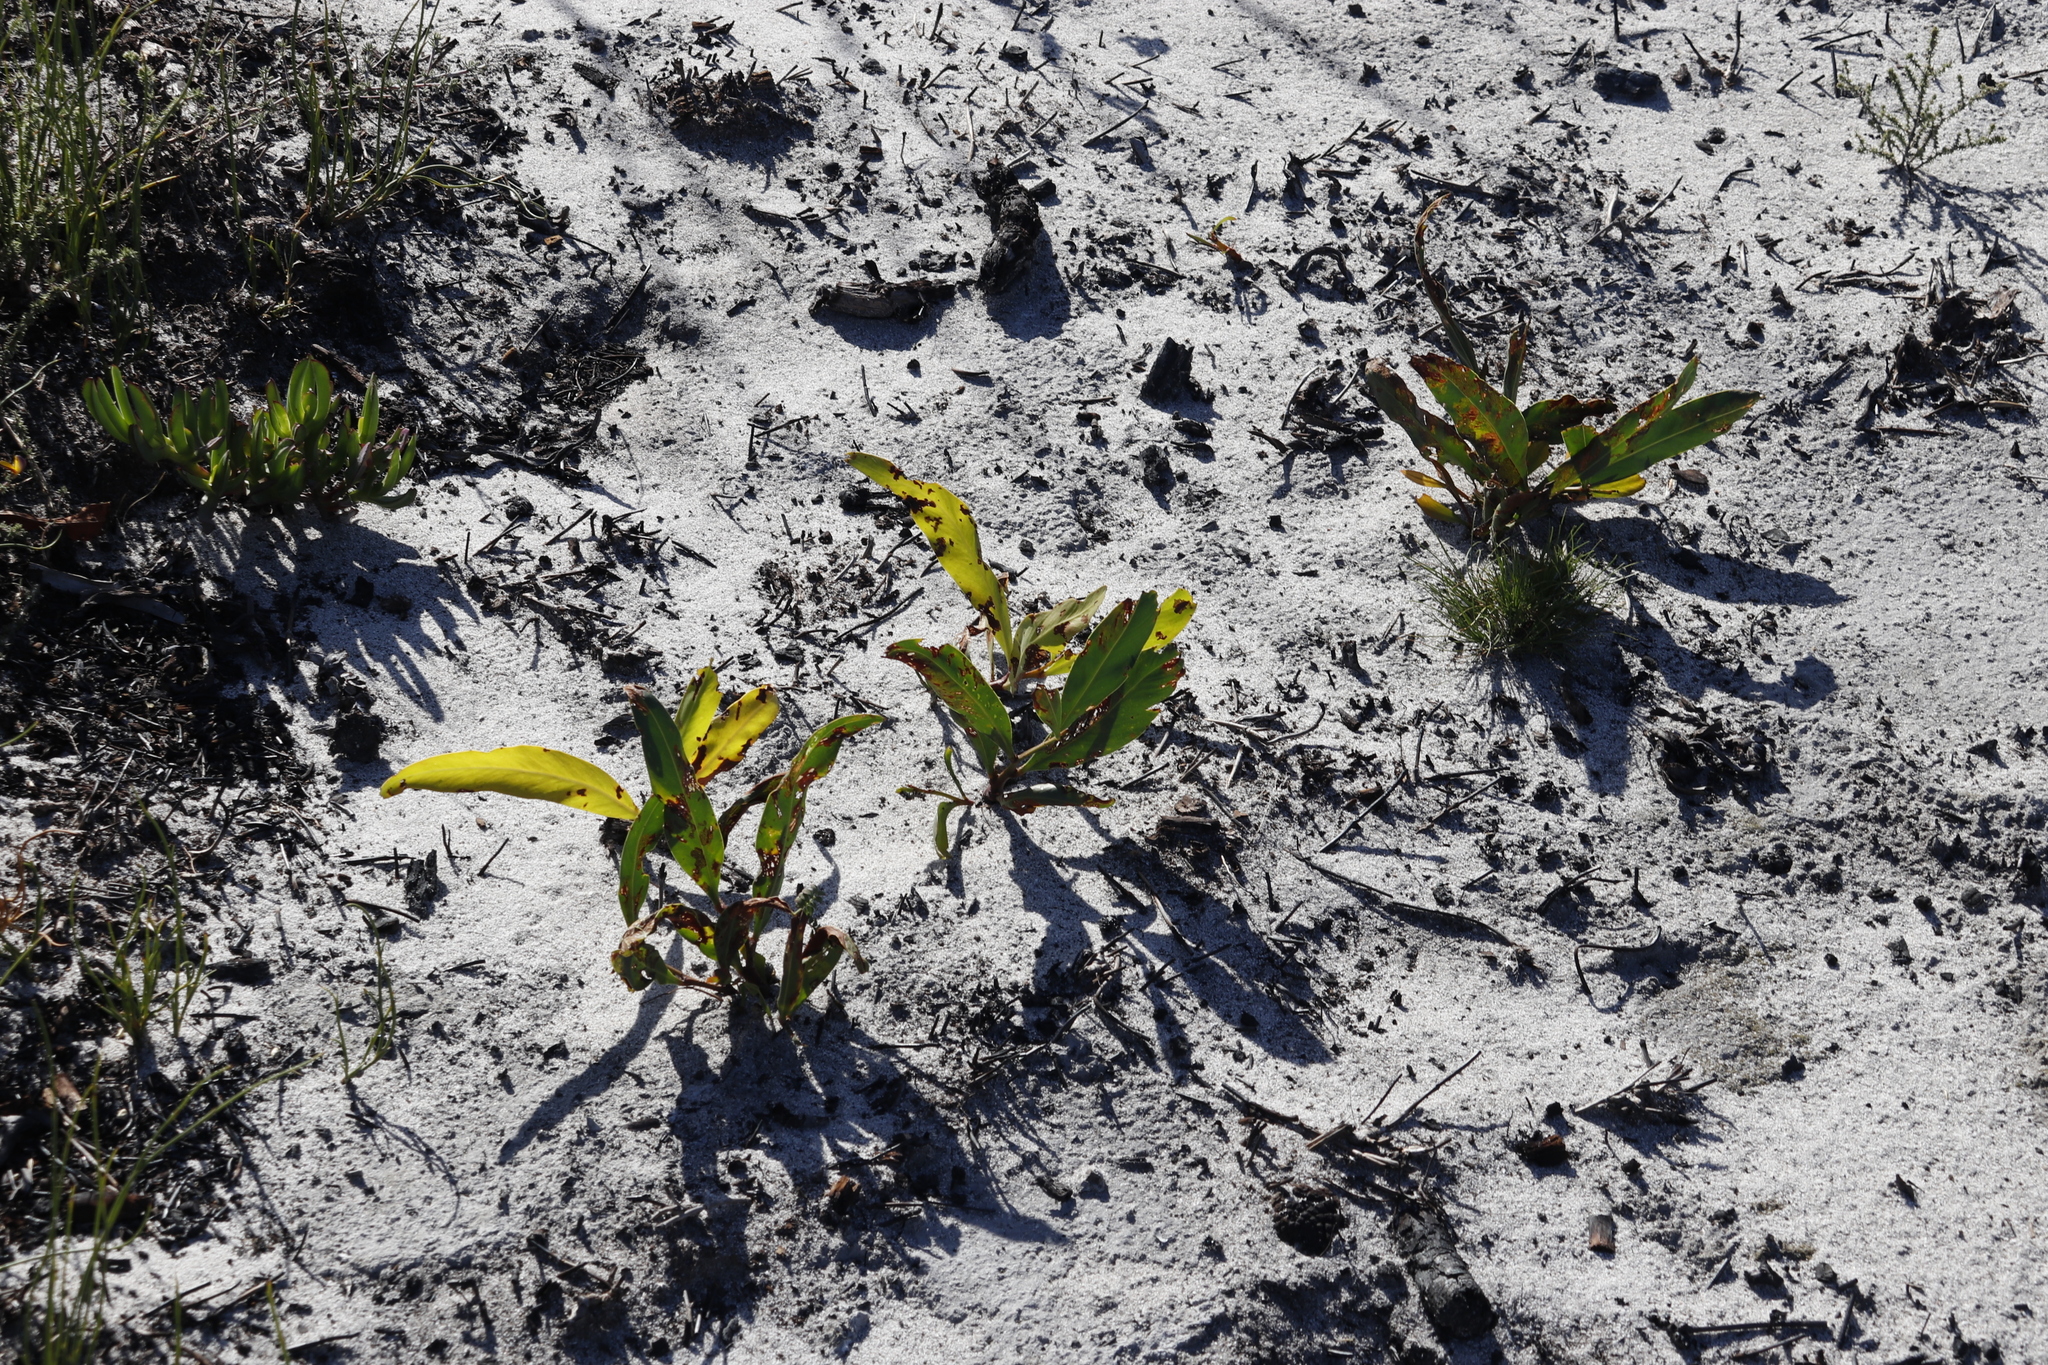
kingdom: Plantae
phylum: Tracheophyta
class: Magnoliopsida
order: Fabales
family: Fabaceae
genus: Acacia
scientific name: Acacia saligna
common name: Orange wattle
